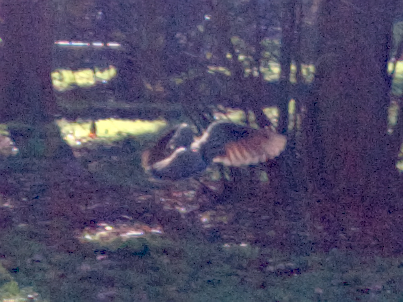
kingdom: Animalia
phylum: Chordata
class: Aves
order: Columbiformes
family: Columbidae
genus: Phaps
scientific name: Phaps chalcoptera
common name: Common bronzewing
